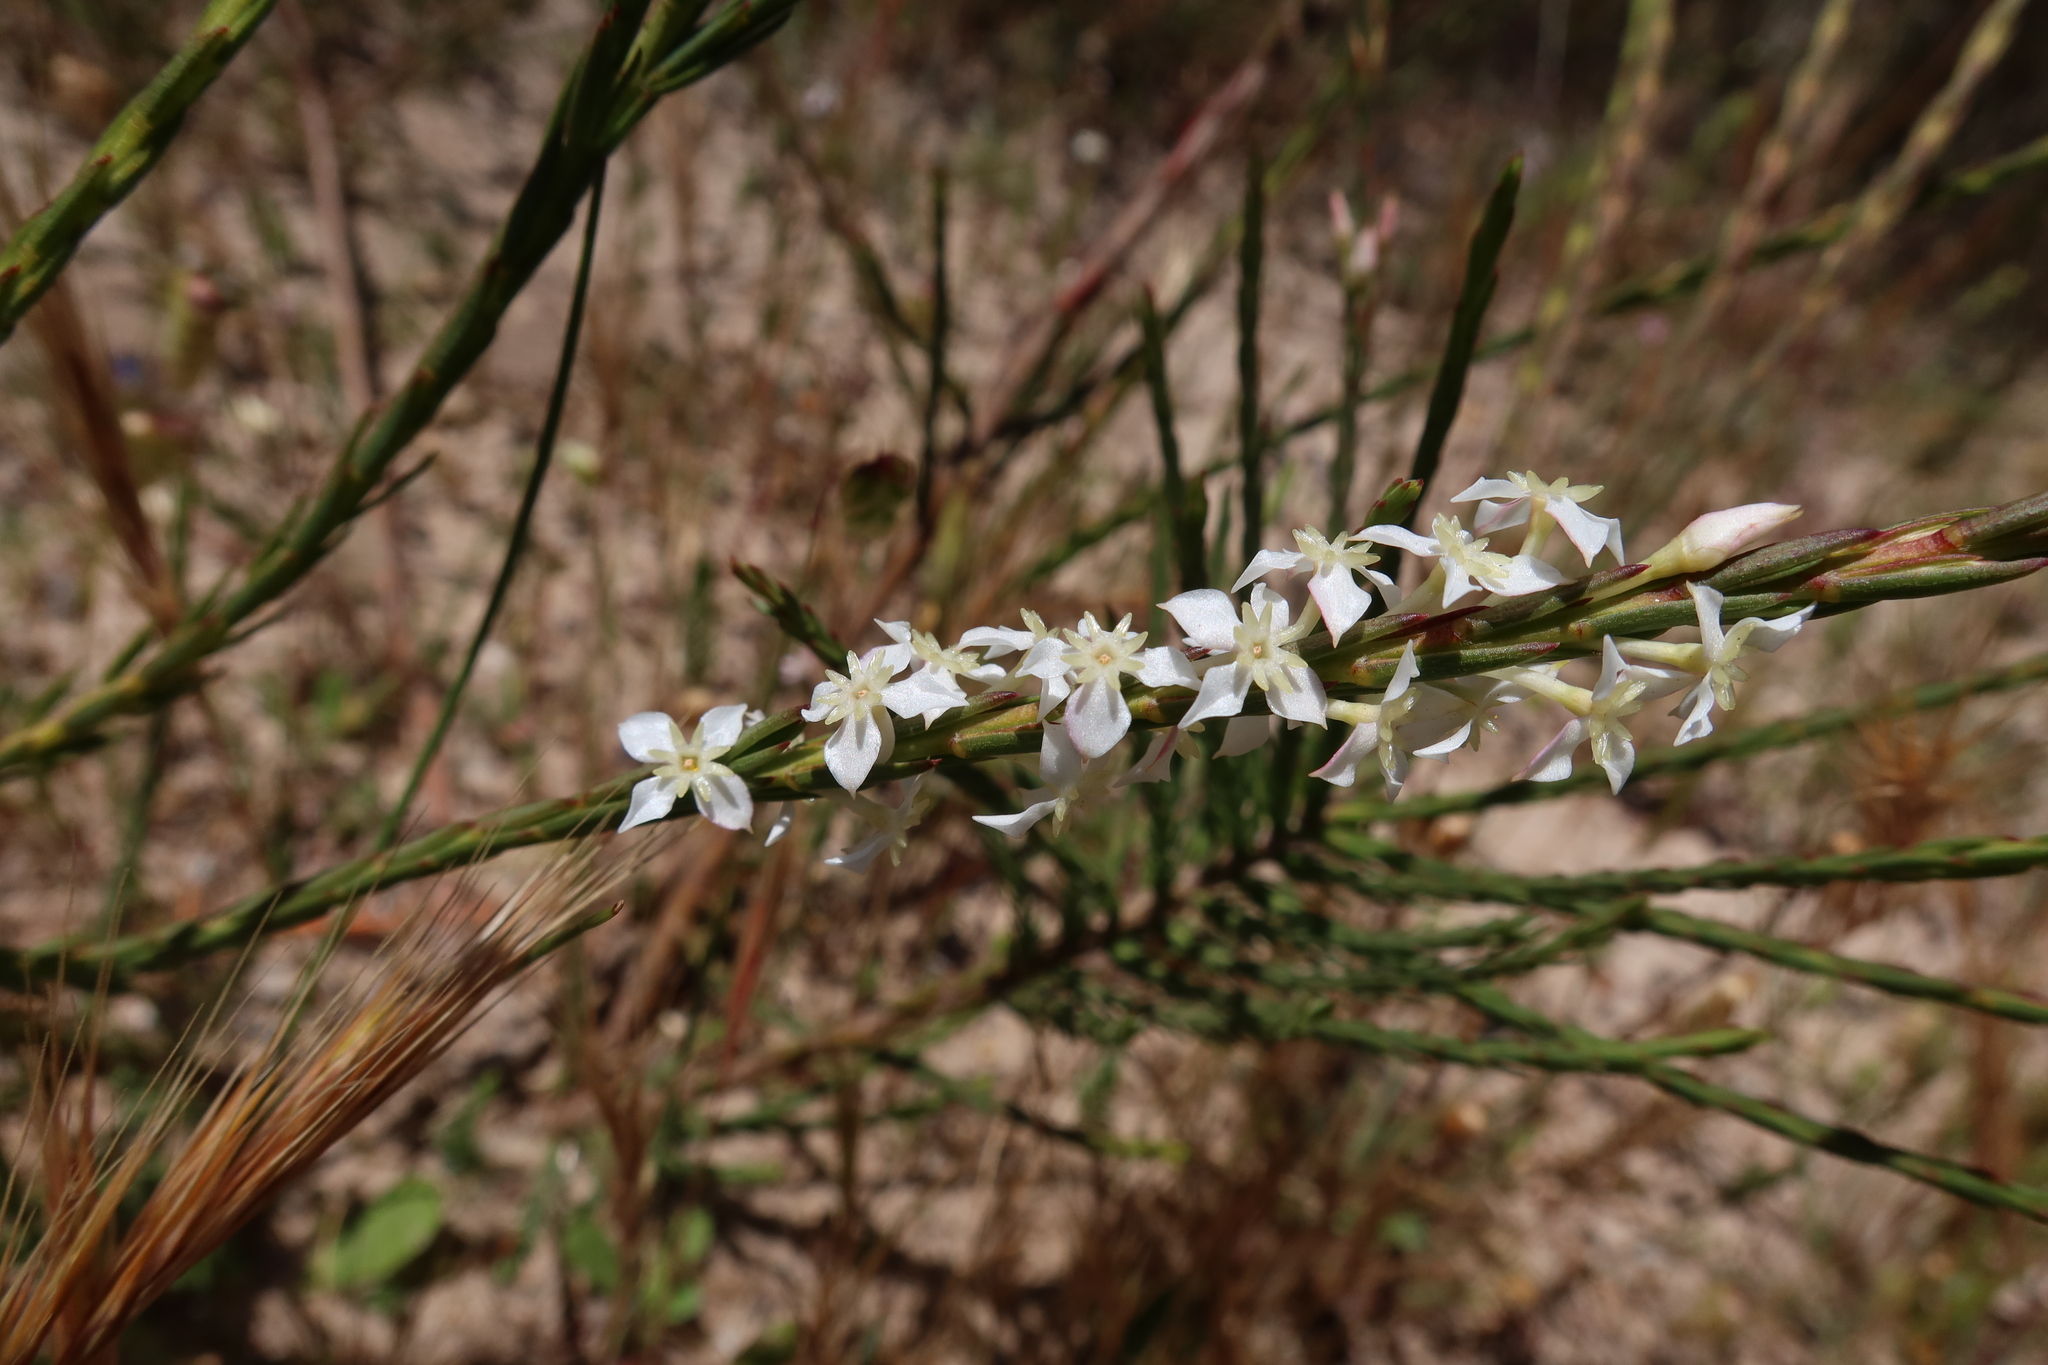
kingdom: Plantae
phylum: Tracheophyta
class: Magnoliopsida
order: Malvales
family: Thymelaeaceae
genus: Struthiola
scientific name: Struthiola dodecandra
